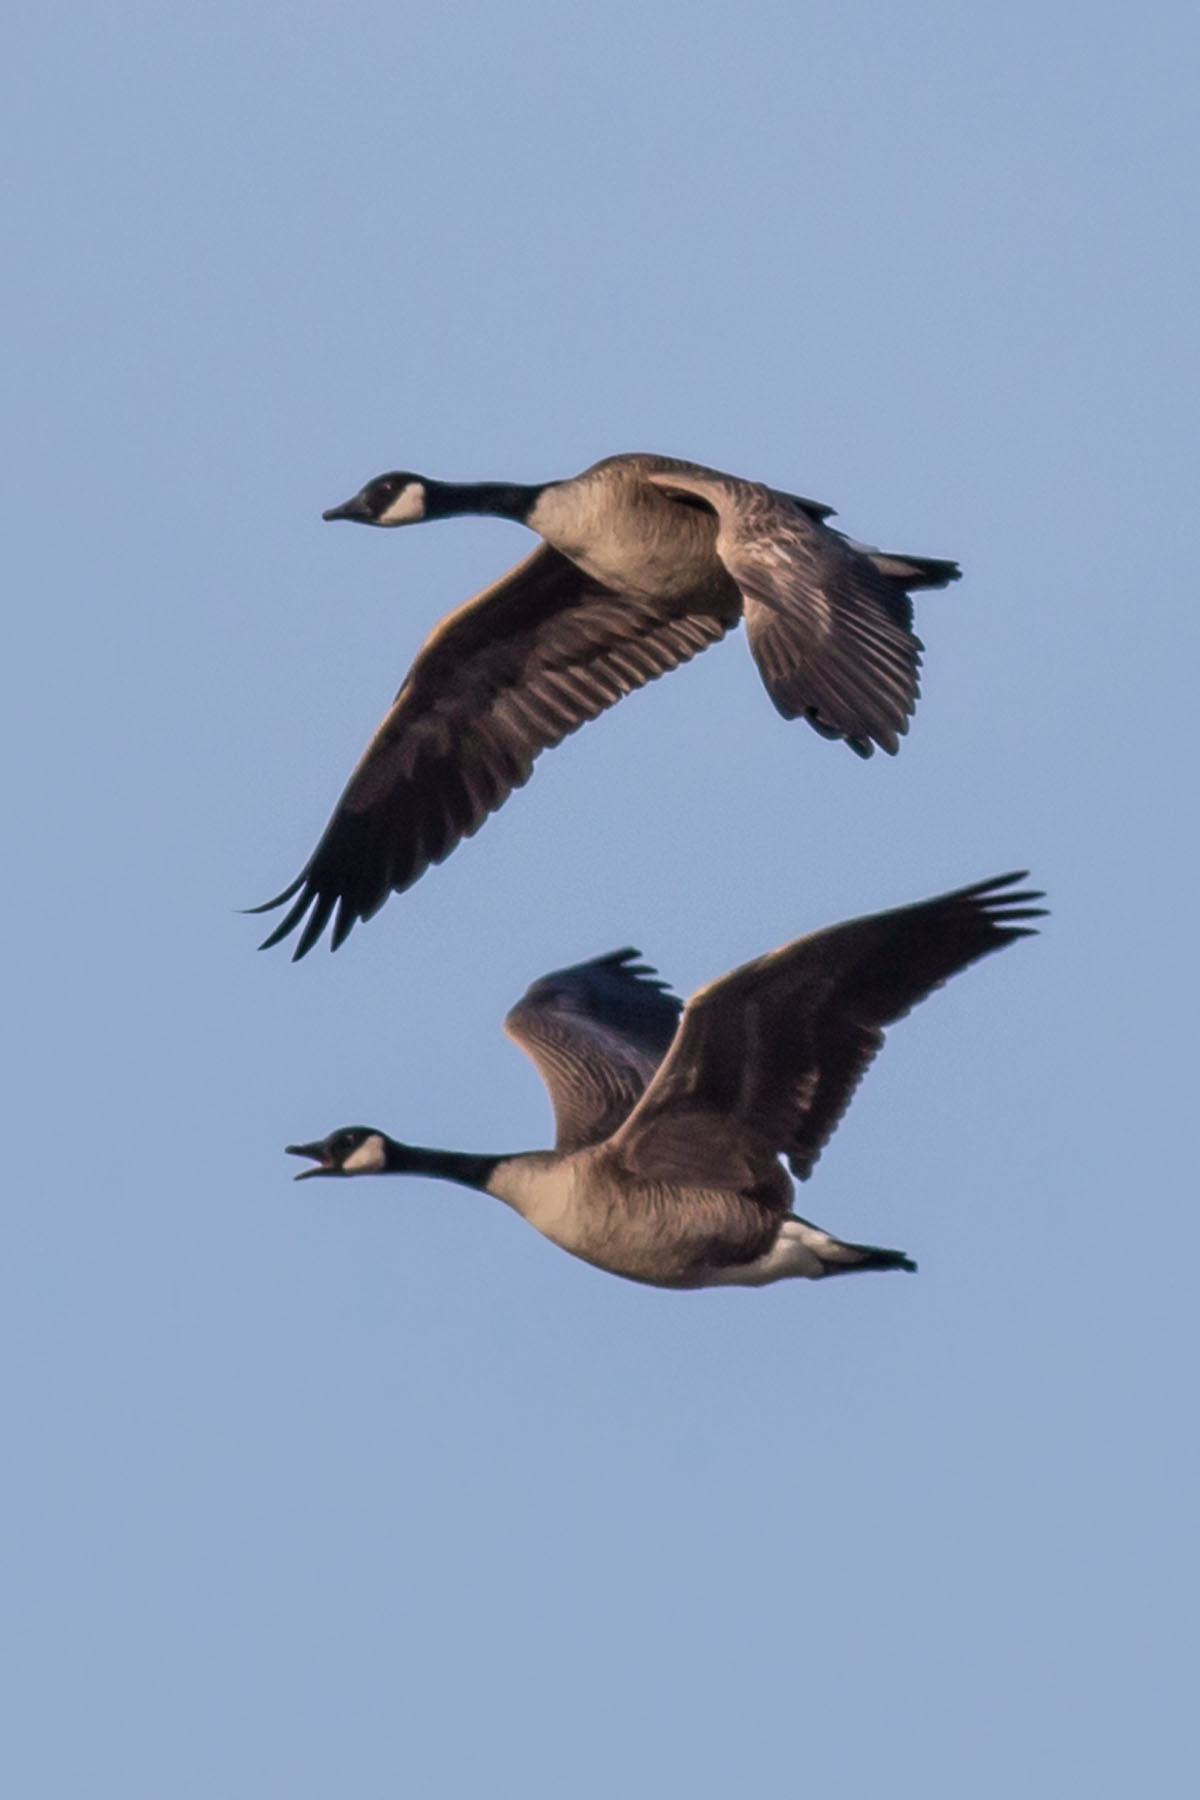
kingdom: Animalia
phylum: Chordata
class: Aves
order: Anseriformes
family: Anatidae
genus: Branta
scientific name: Branta canadensis
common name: Canada goose
